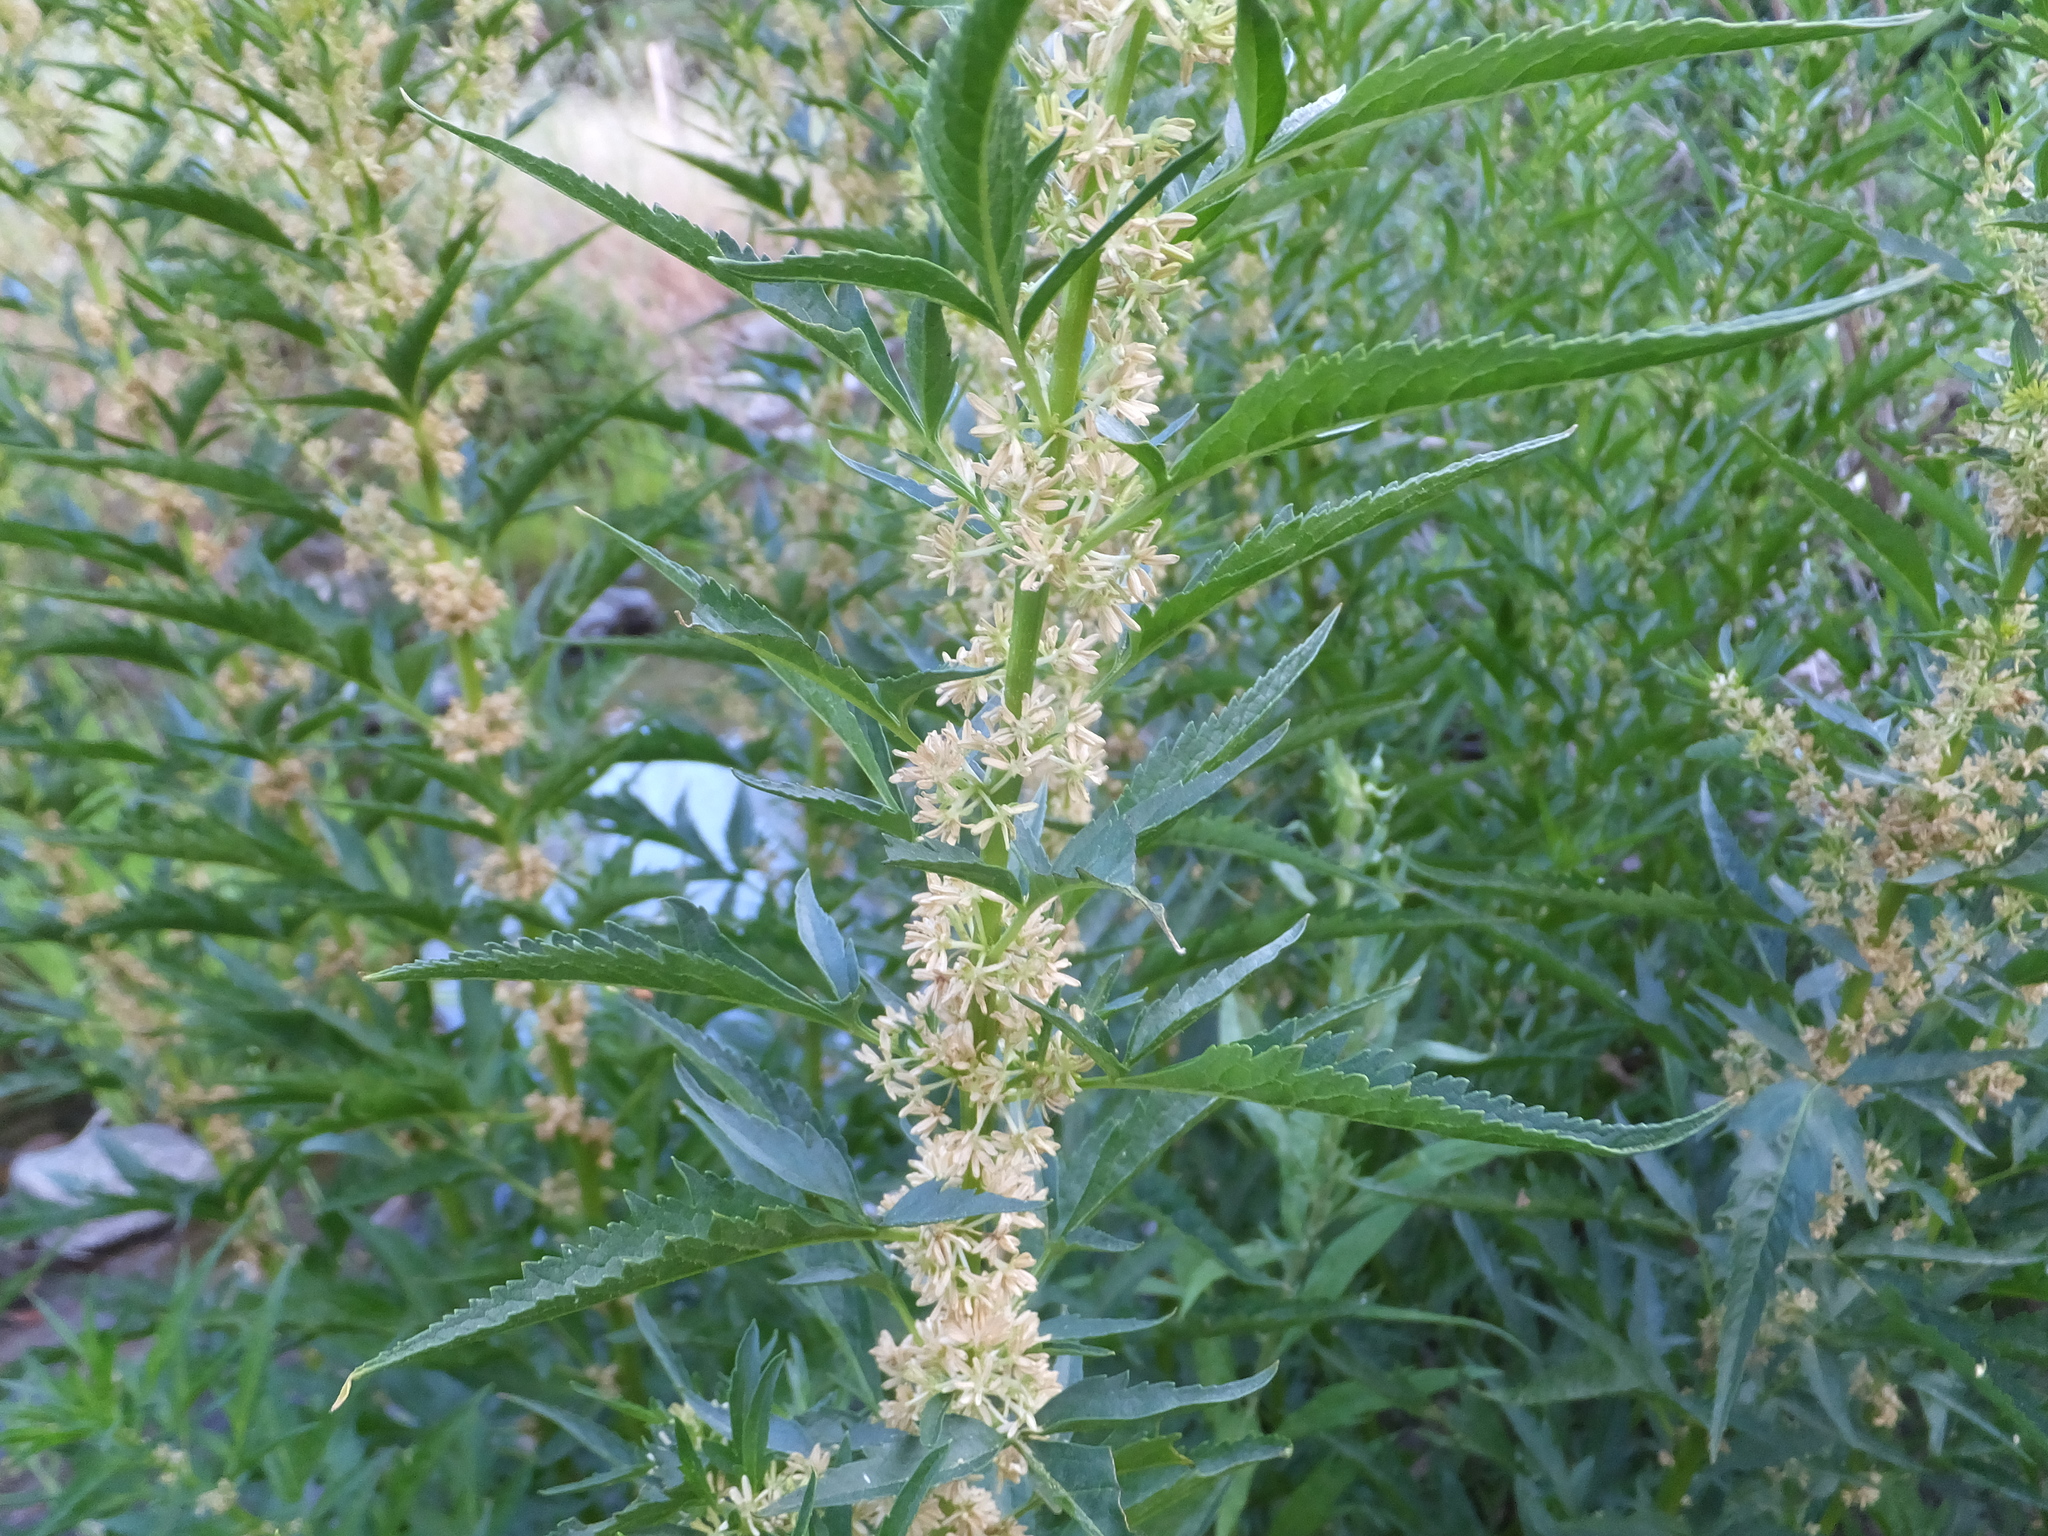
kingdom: Plantae
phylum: Tracheophyta
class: Magnoliopsida
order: Cucurbitales
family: Datiscaceae
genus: Datisca
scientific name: Datisca glomerata
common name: Durango-root
